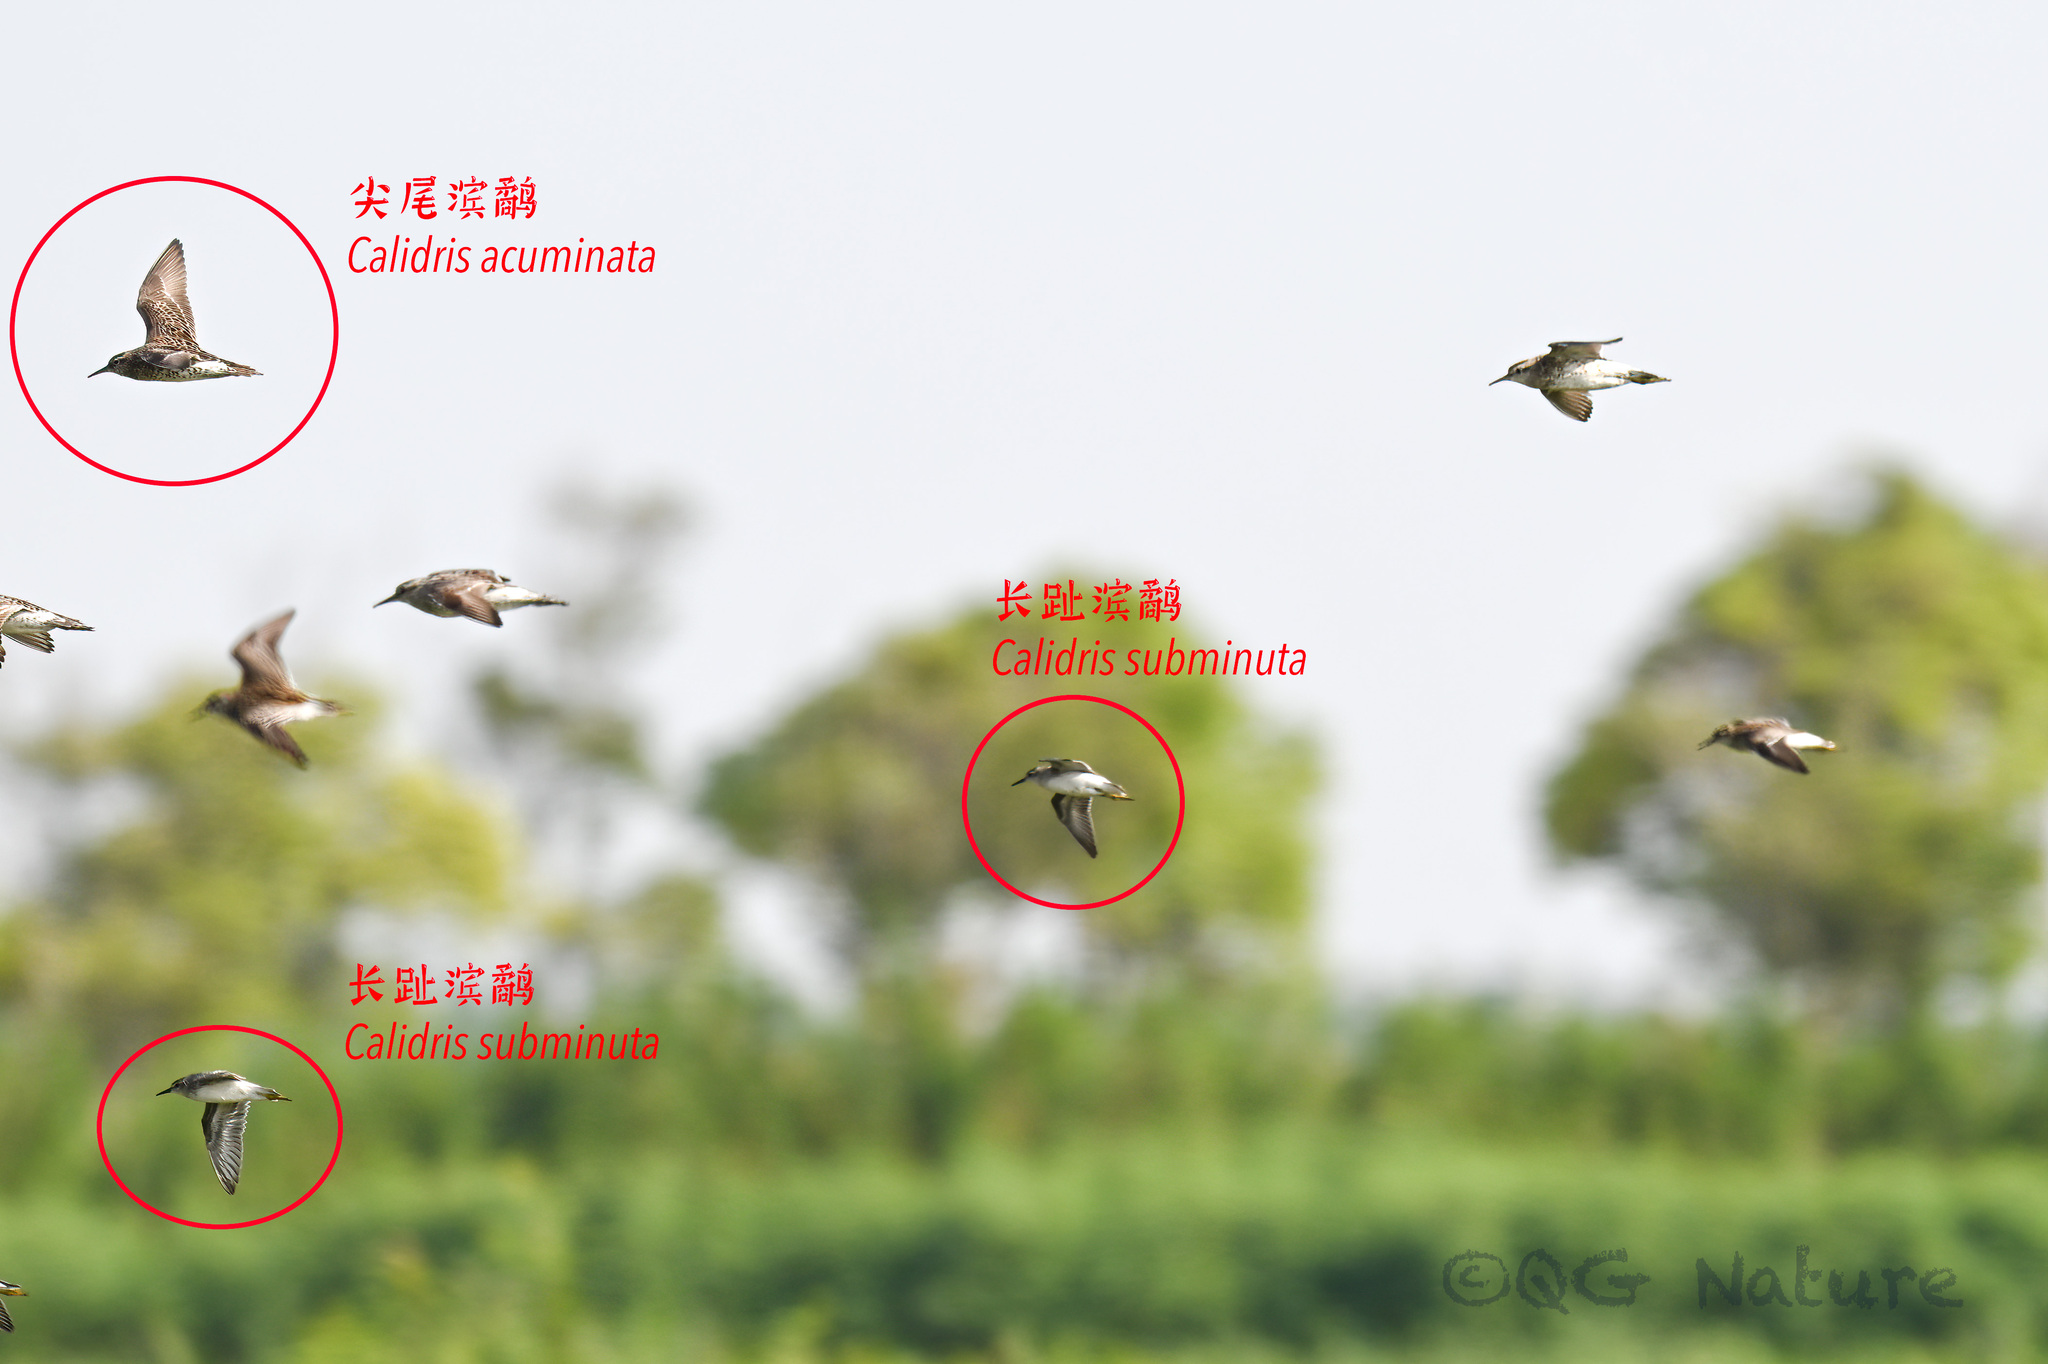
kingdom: Animalia
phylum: Chordata
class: Aves
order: Charadriiformes
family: Scolopacidae
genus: Calidris
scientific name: Calidris subminuta
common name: Long-toed stint
